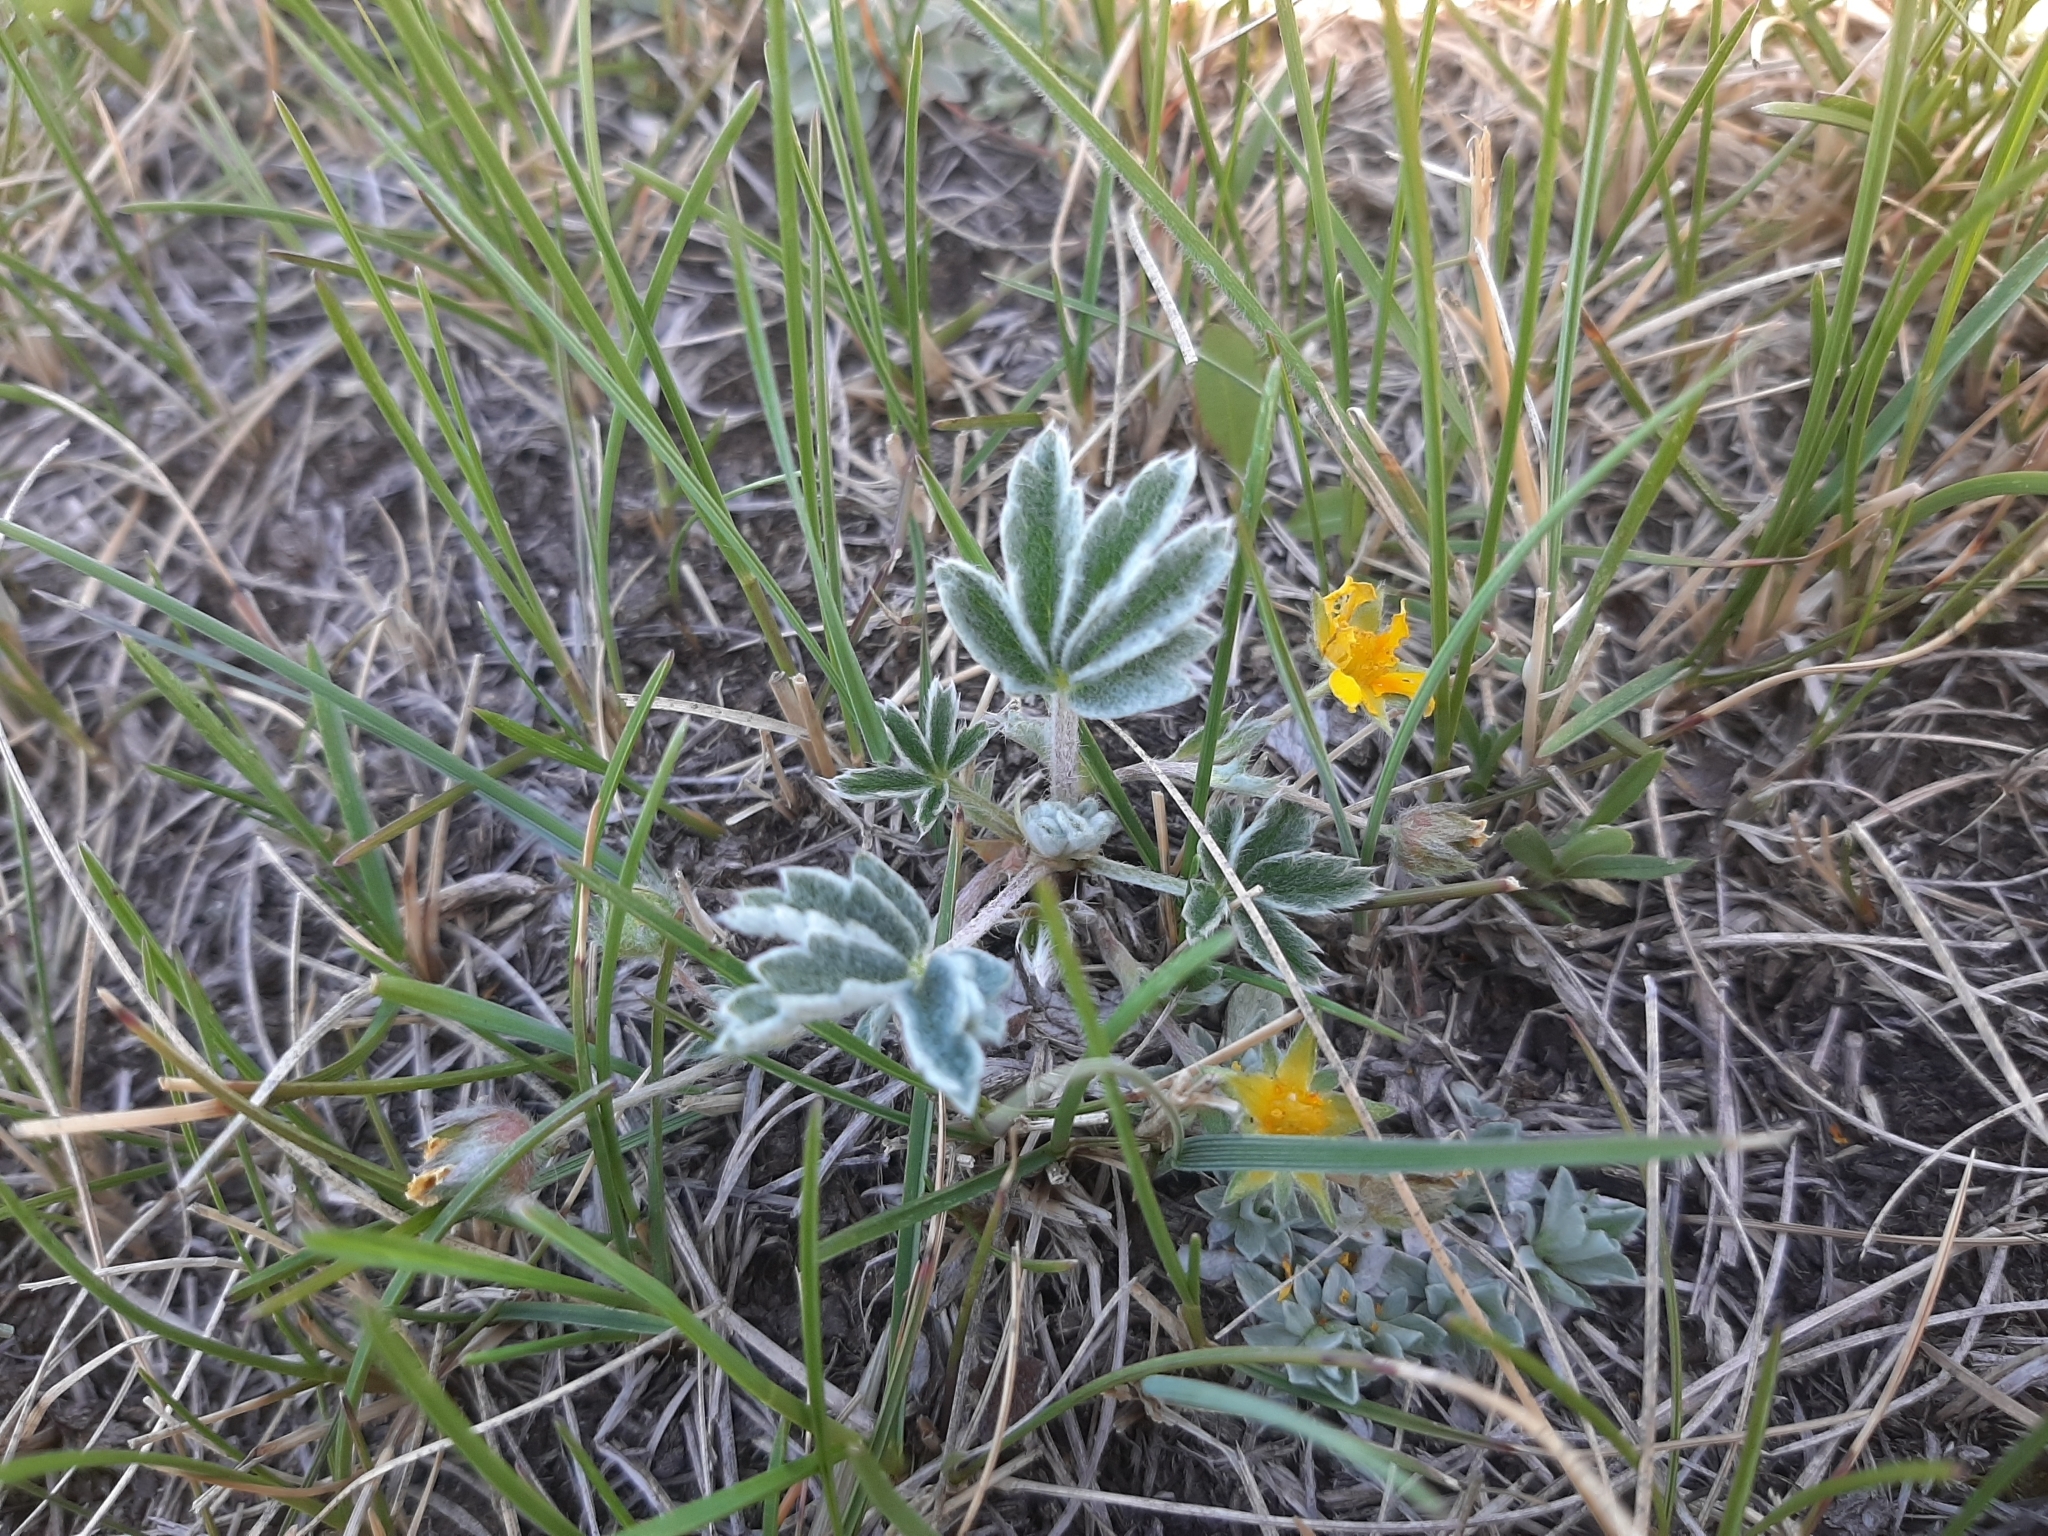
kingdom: Plantae
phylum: Tracheophyta
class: Magnoliopsida
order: Rosales
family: Rosaceae
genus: Potentilla
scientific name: Potentilla concinna
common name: Early cinquefoil
